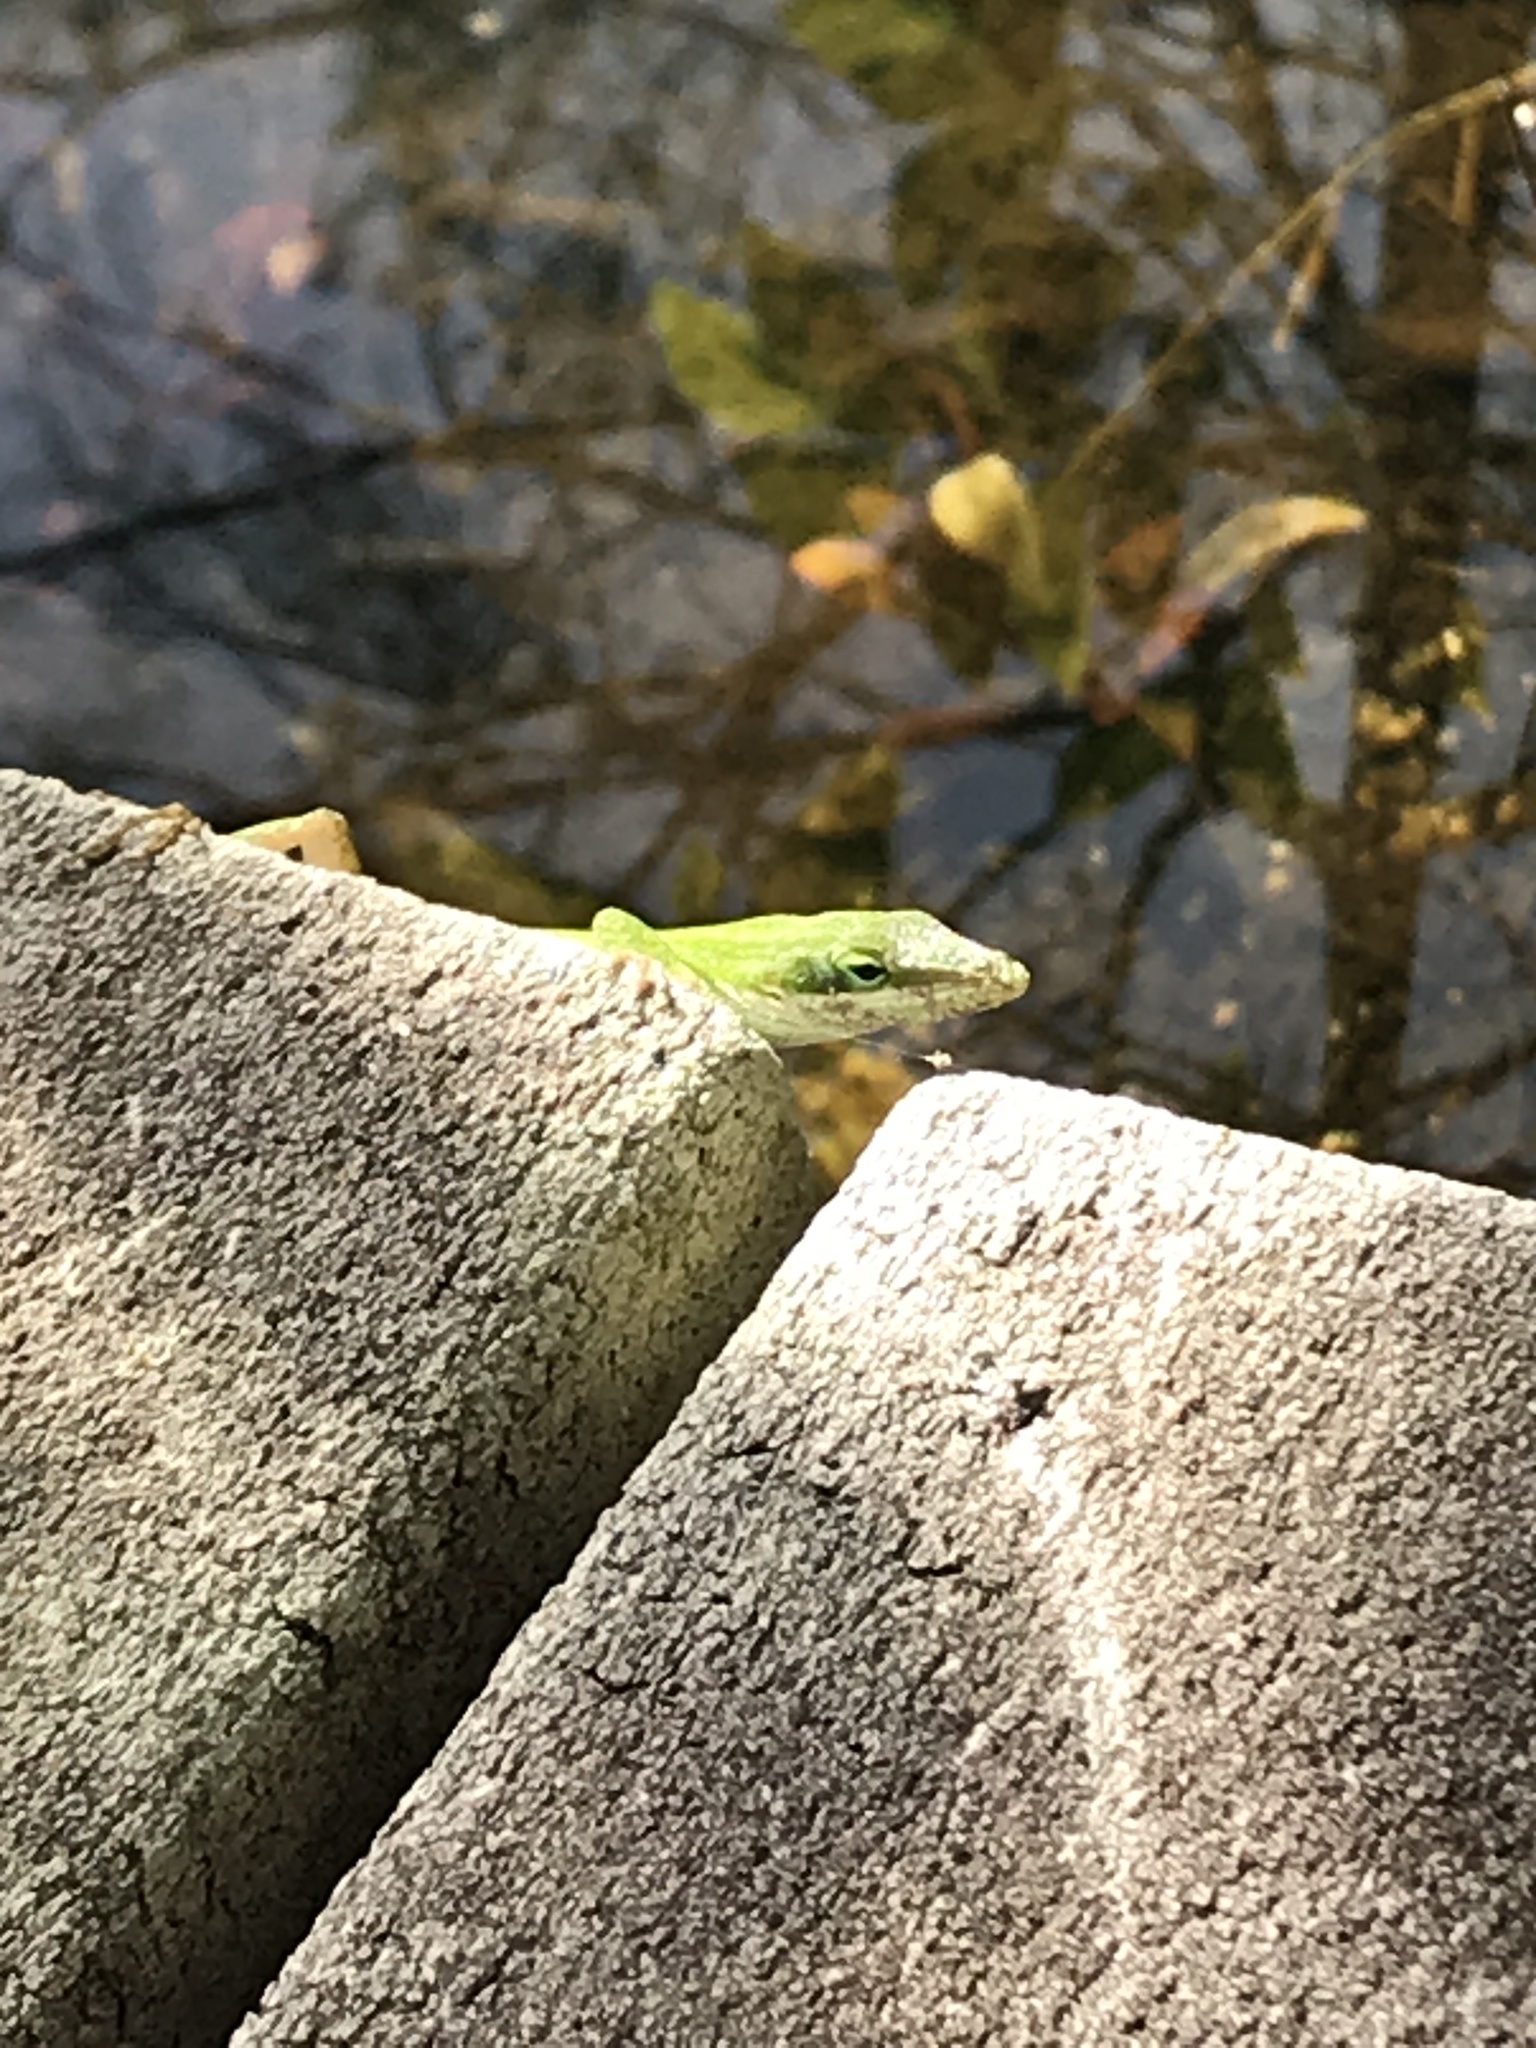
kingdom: Animalia
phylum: Chordata
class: Squamata
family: Dactyloidae
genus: Anolis
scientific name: Anolis carolinensis
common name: Green anole
